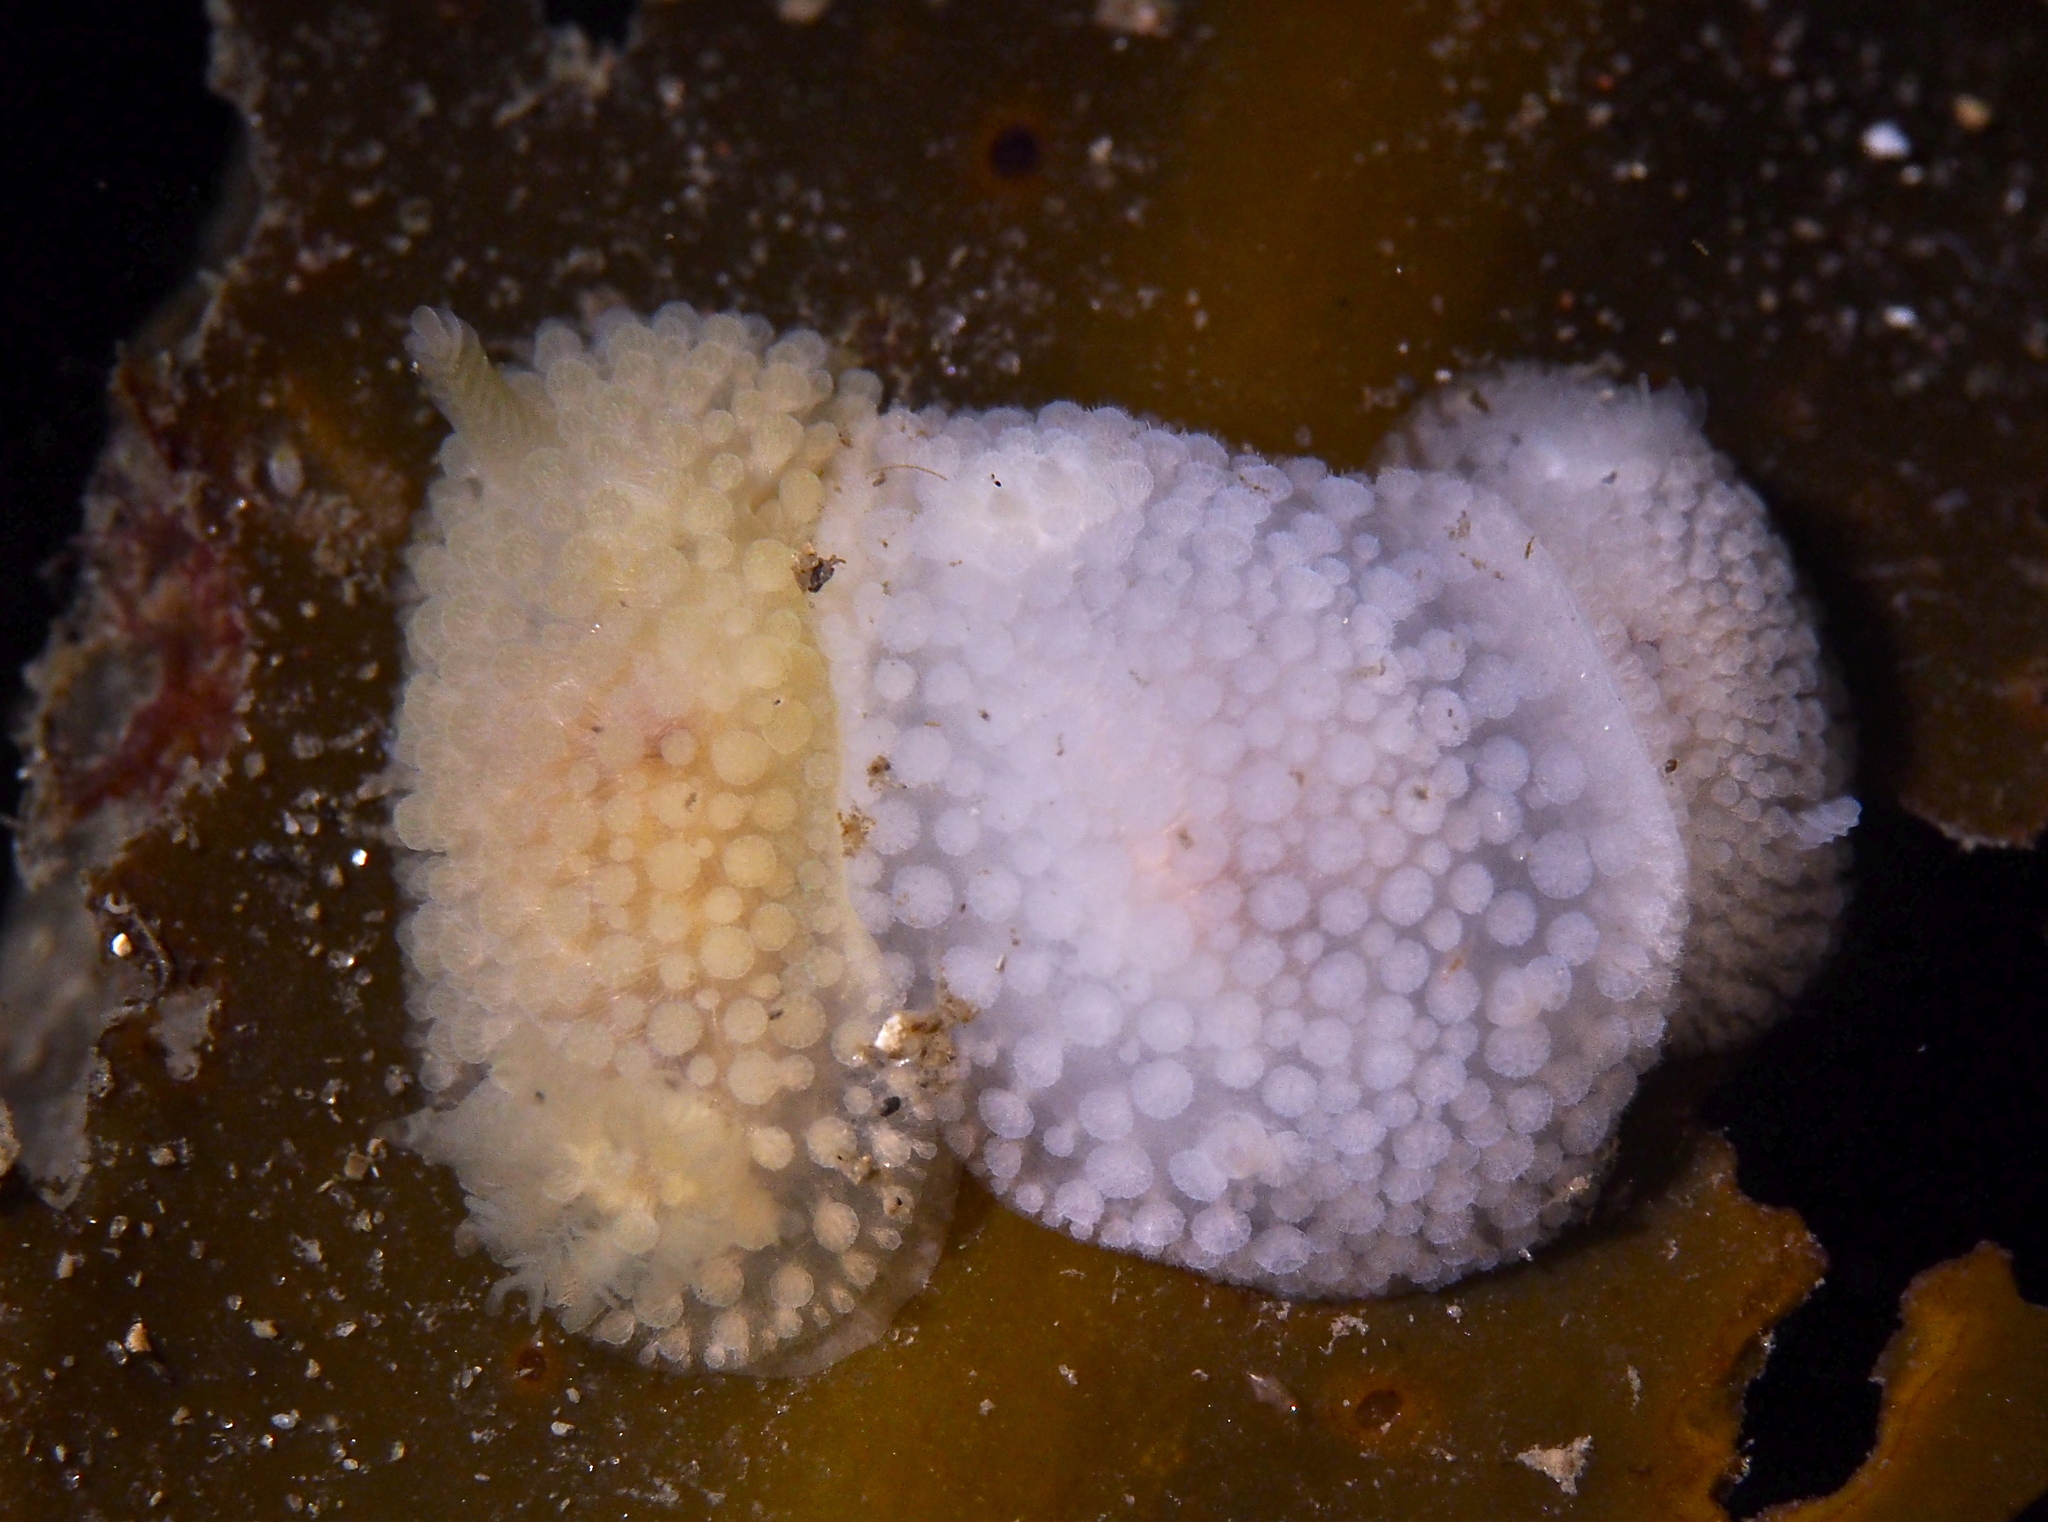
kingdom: Animalia
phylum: Mollusca
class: Gastropoda
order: Nudibranchia
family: Onchidorididae
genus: Onchidoris
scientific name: Onchidoris muricata
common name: Rough doris
